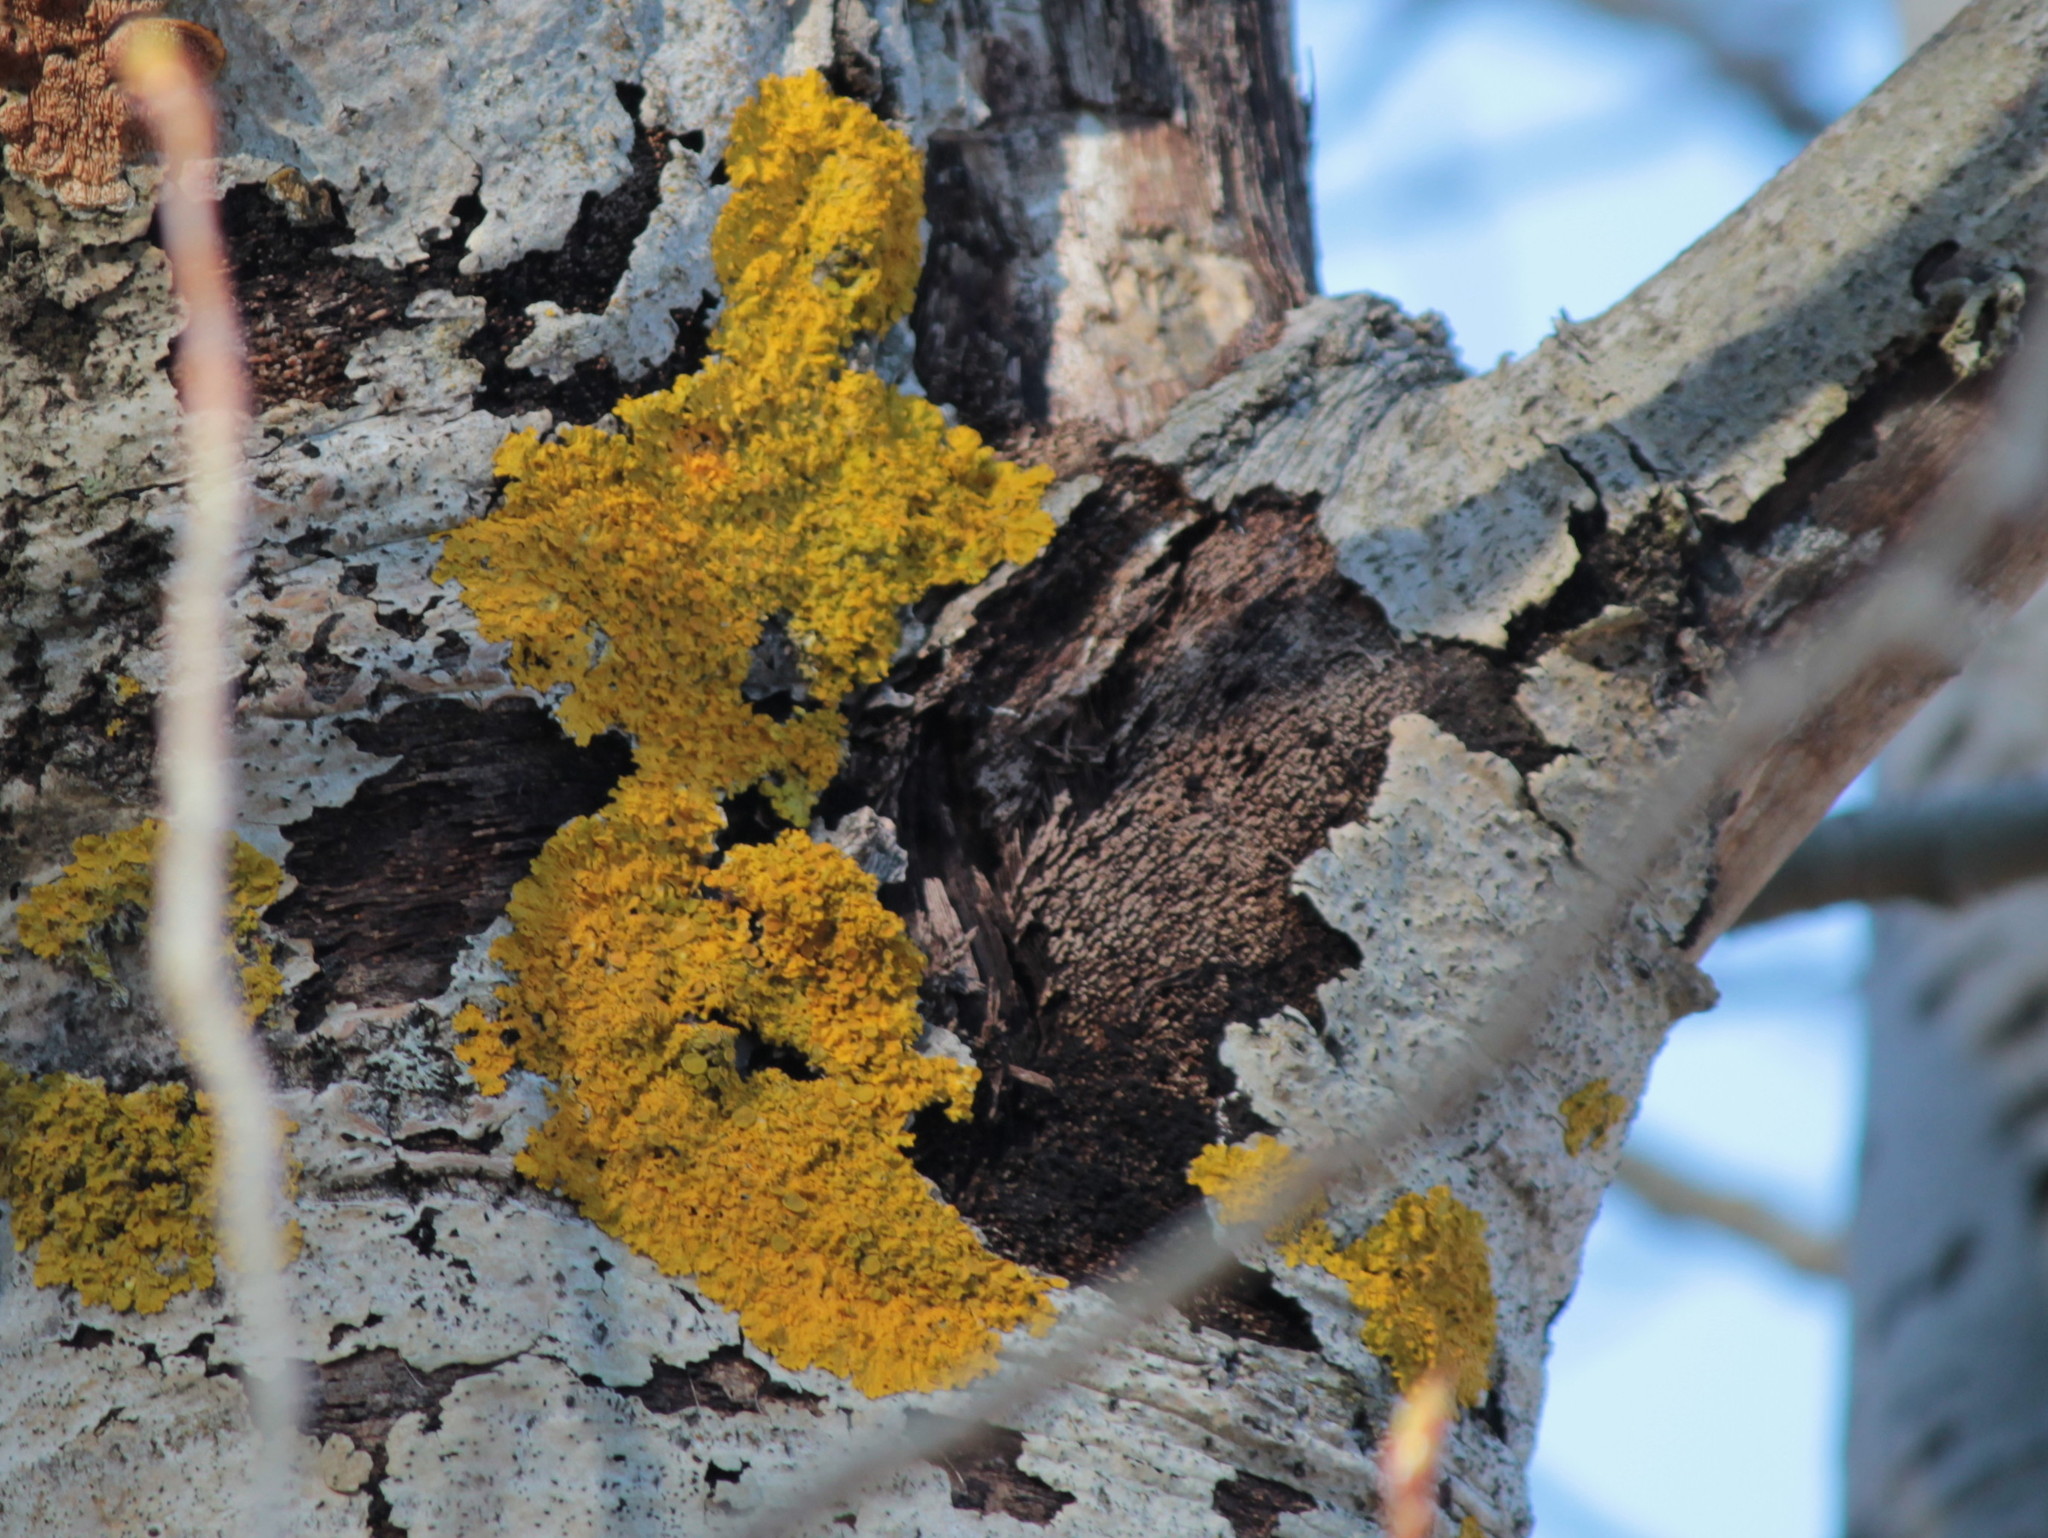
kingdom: Fungi
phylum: Ascomycota
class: Lecanoromycetes
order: Teloschistales
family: Teloschistaceae
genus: Xanthoria
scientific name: Xanthoria parietina
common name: Common orange lichen
